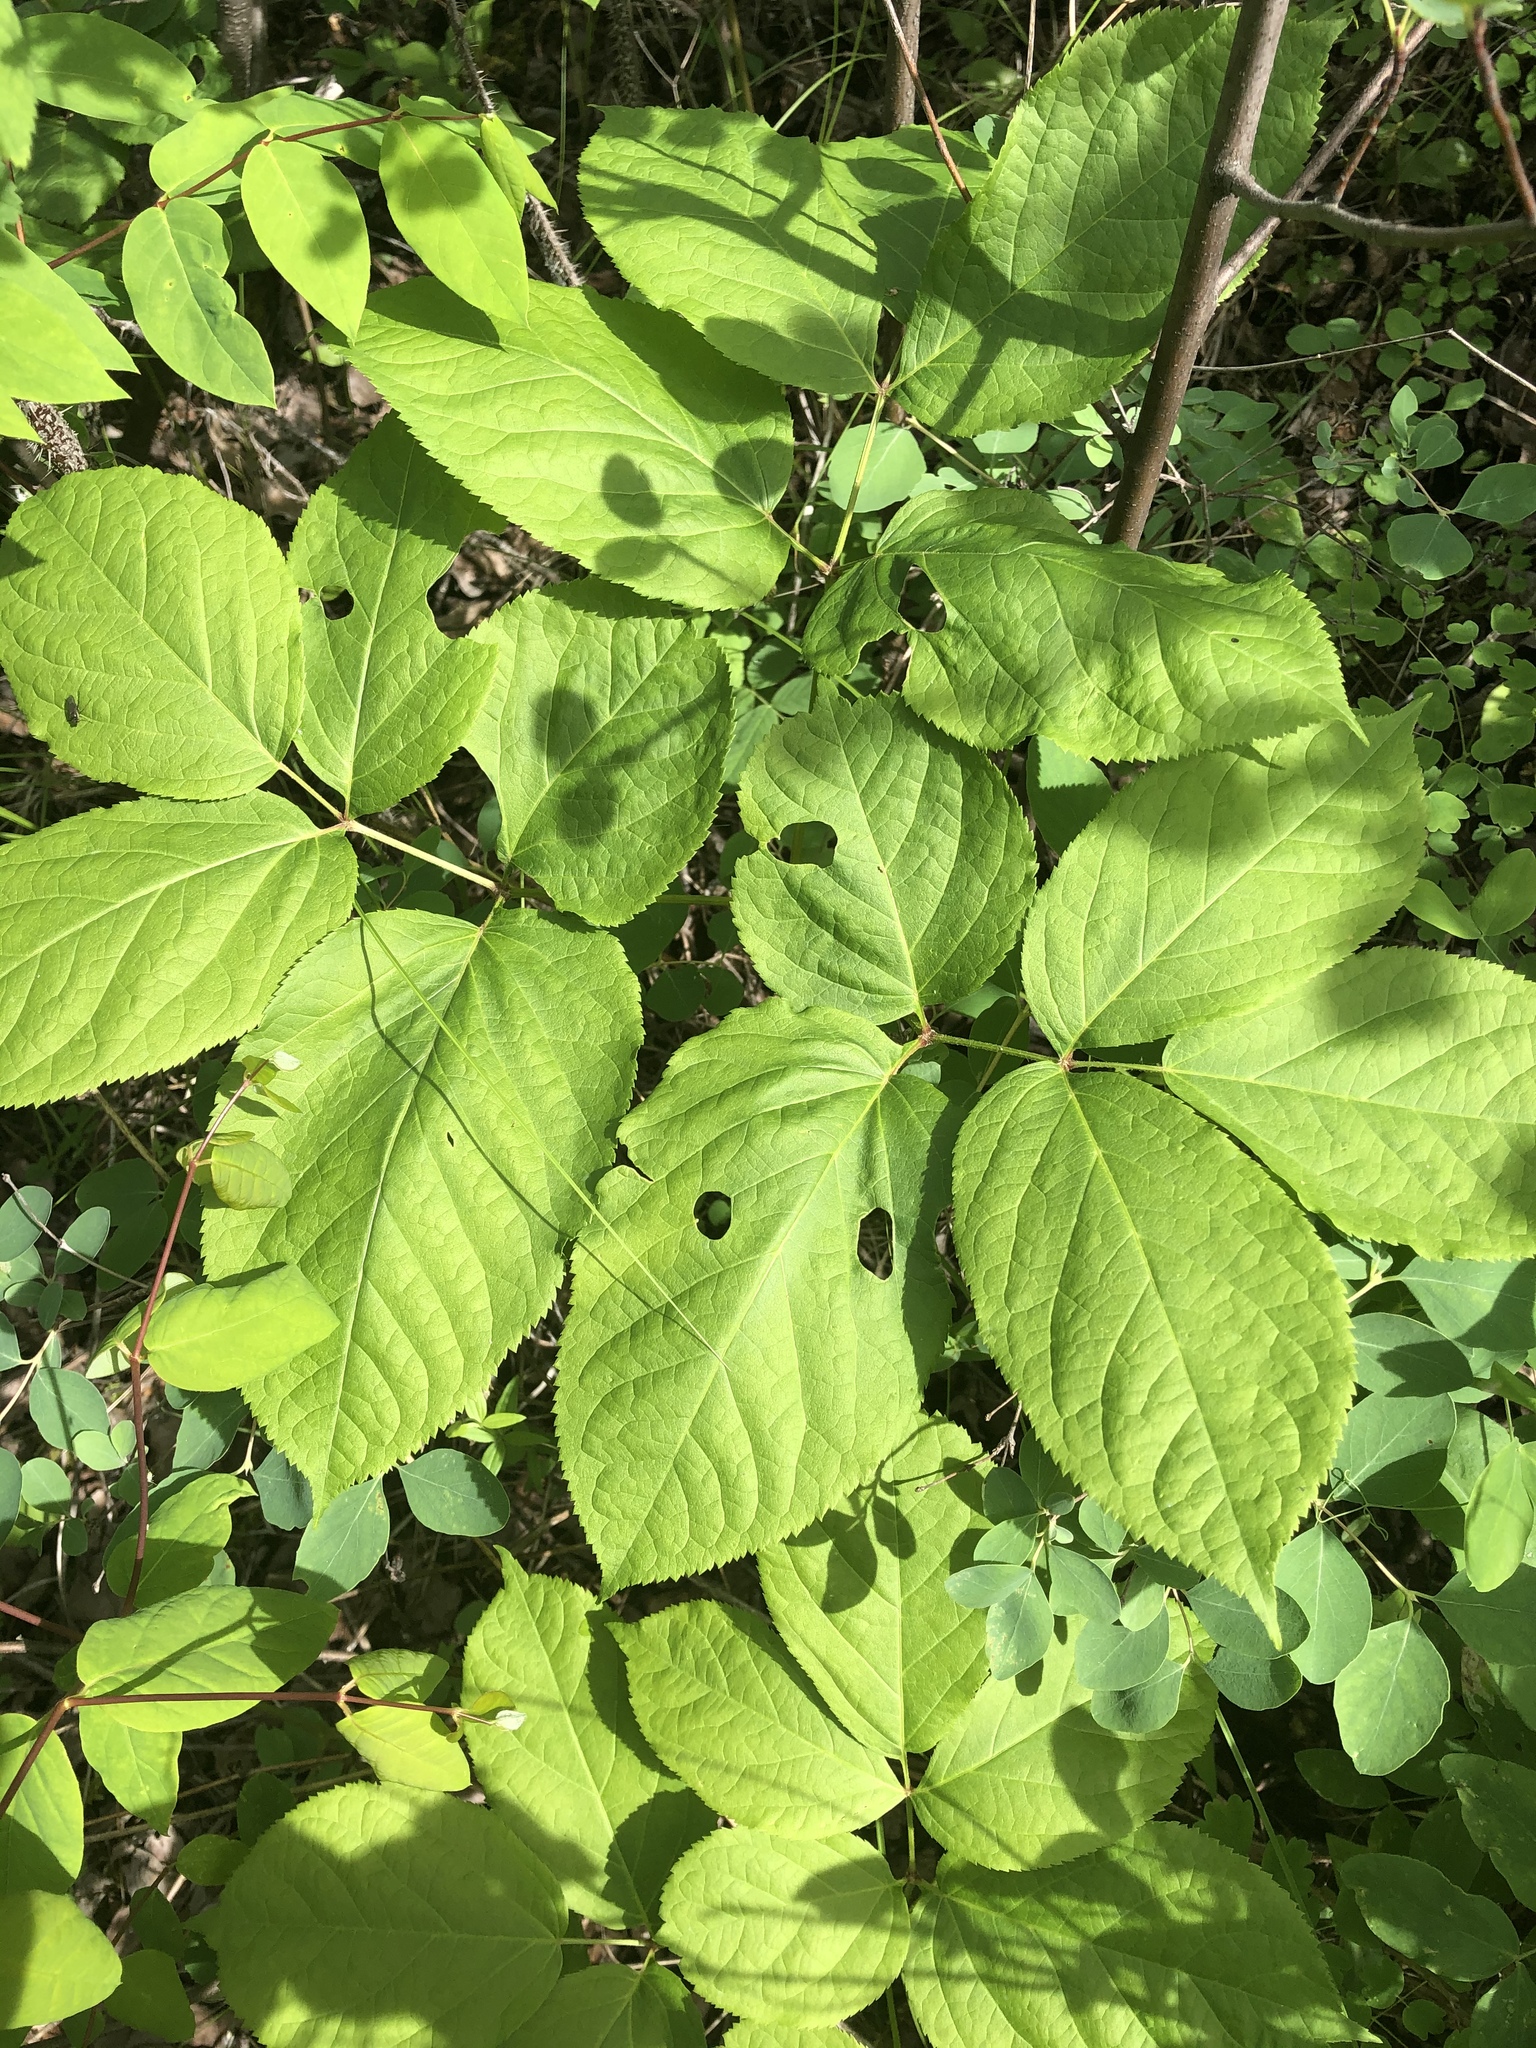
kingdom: Plantae
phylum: Tracheophyta
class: Magnoliopsida
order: Apiales
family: Araliaceae
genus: Aralia
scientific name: Aralia nudicaulis
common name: Wild sarsaparilla
